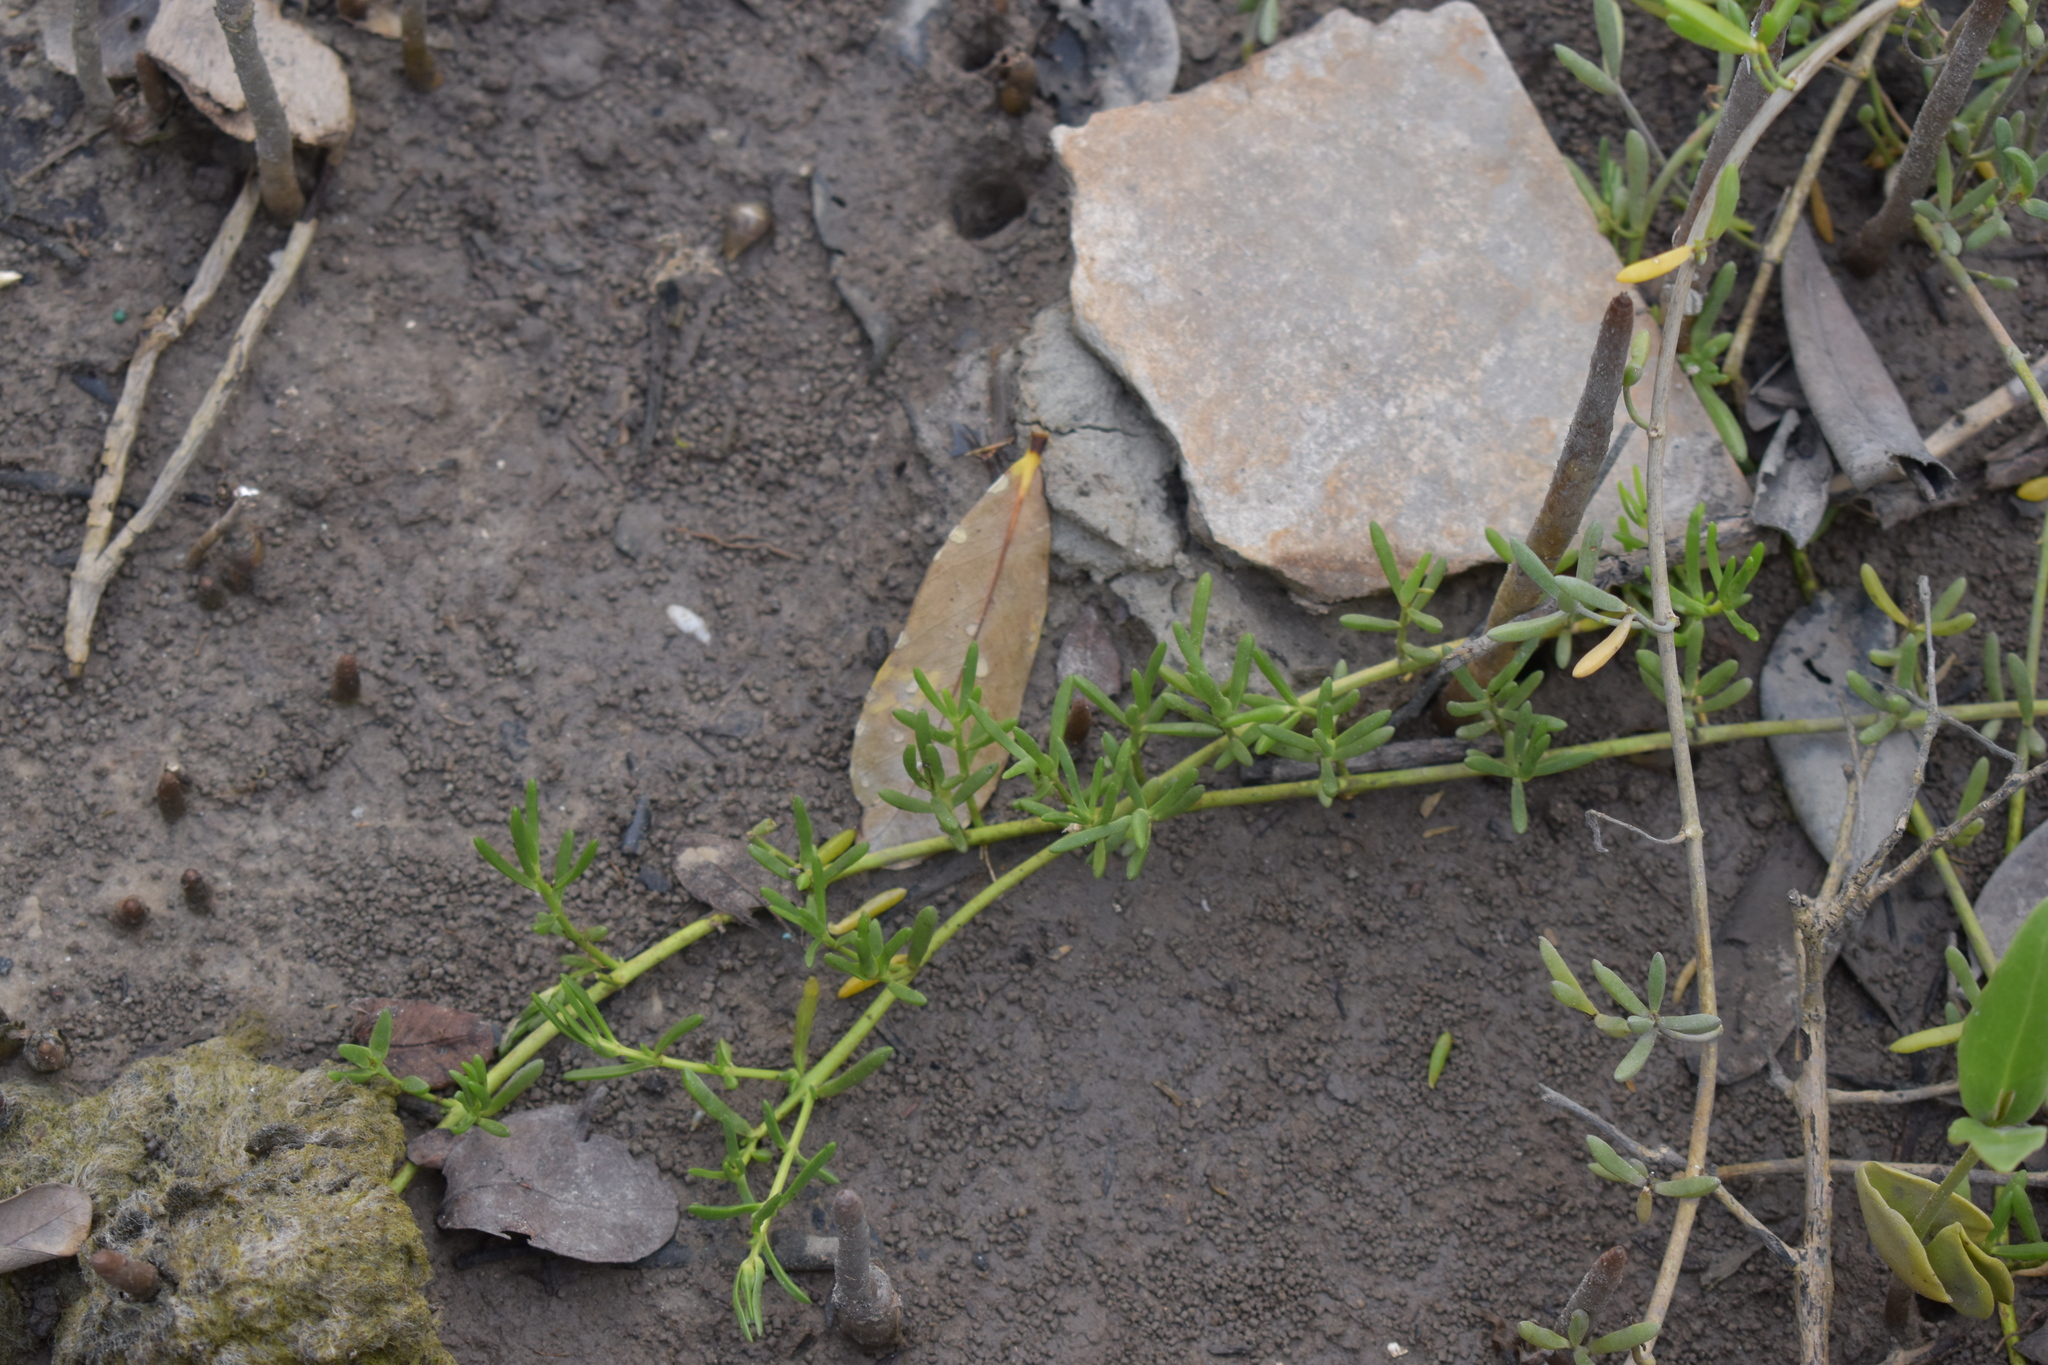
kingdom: Plantae
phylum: Tracheophyta
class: Magnoliopsida
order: Brassicales
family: Bataceae
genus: Batis
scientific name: Batis maritima
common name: Turtleweed
